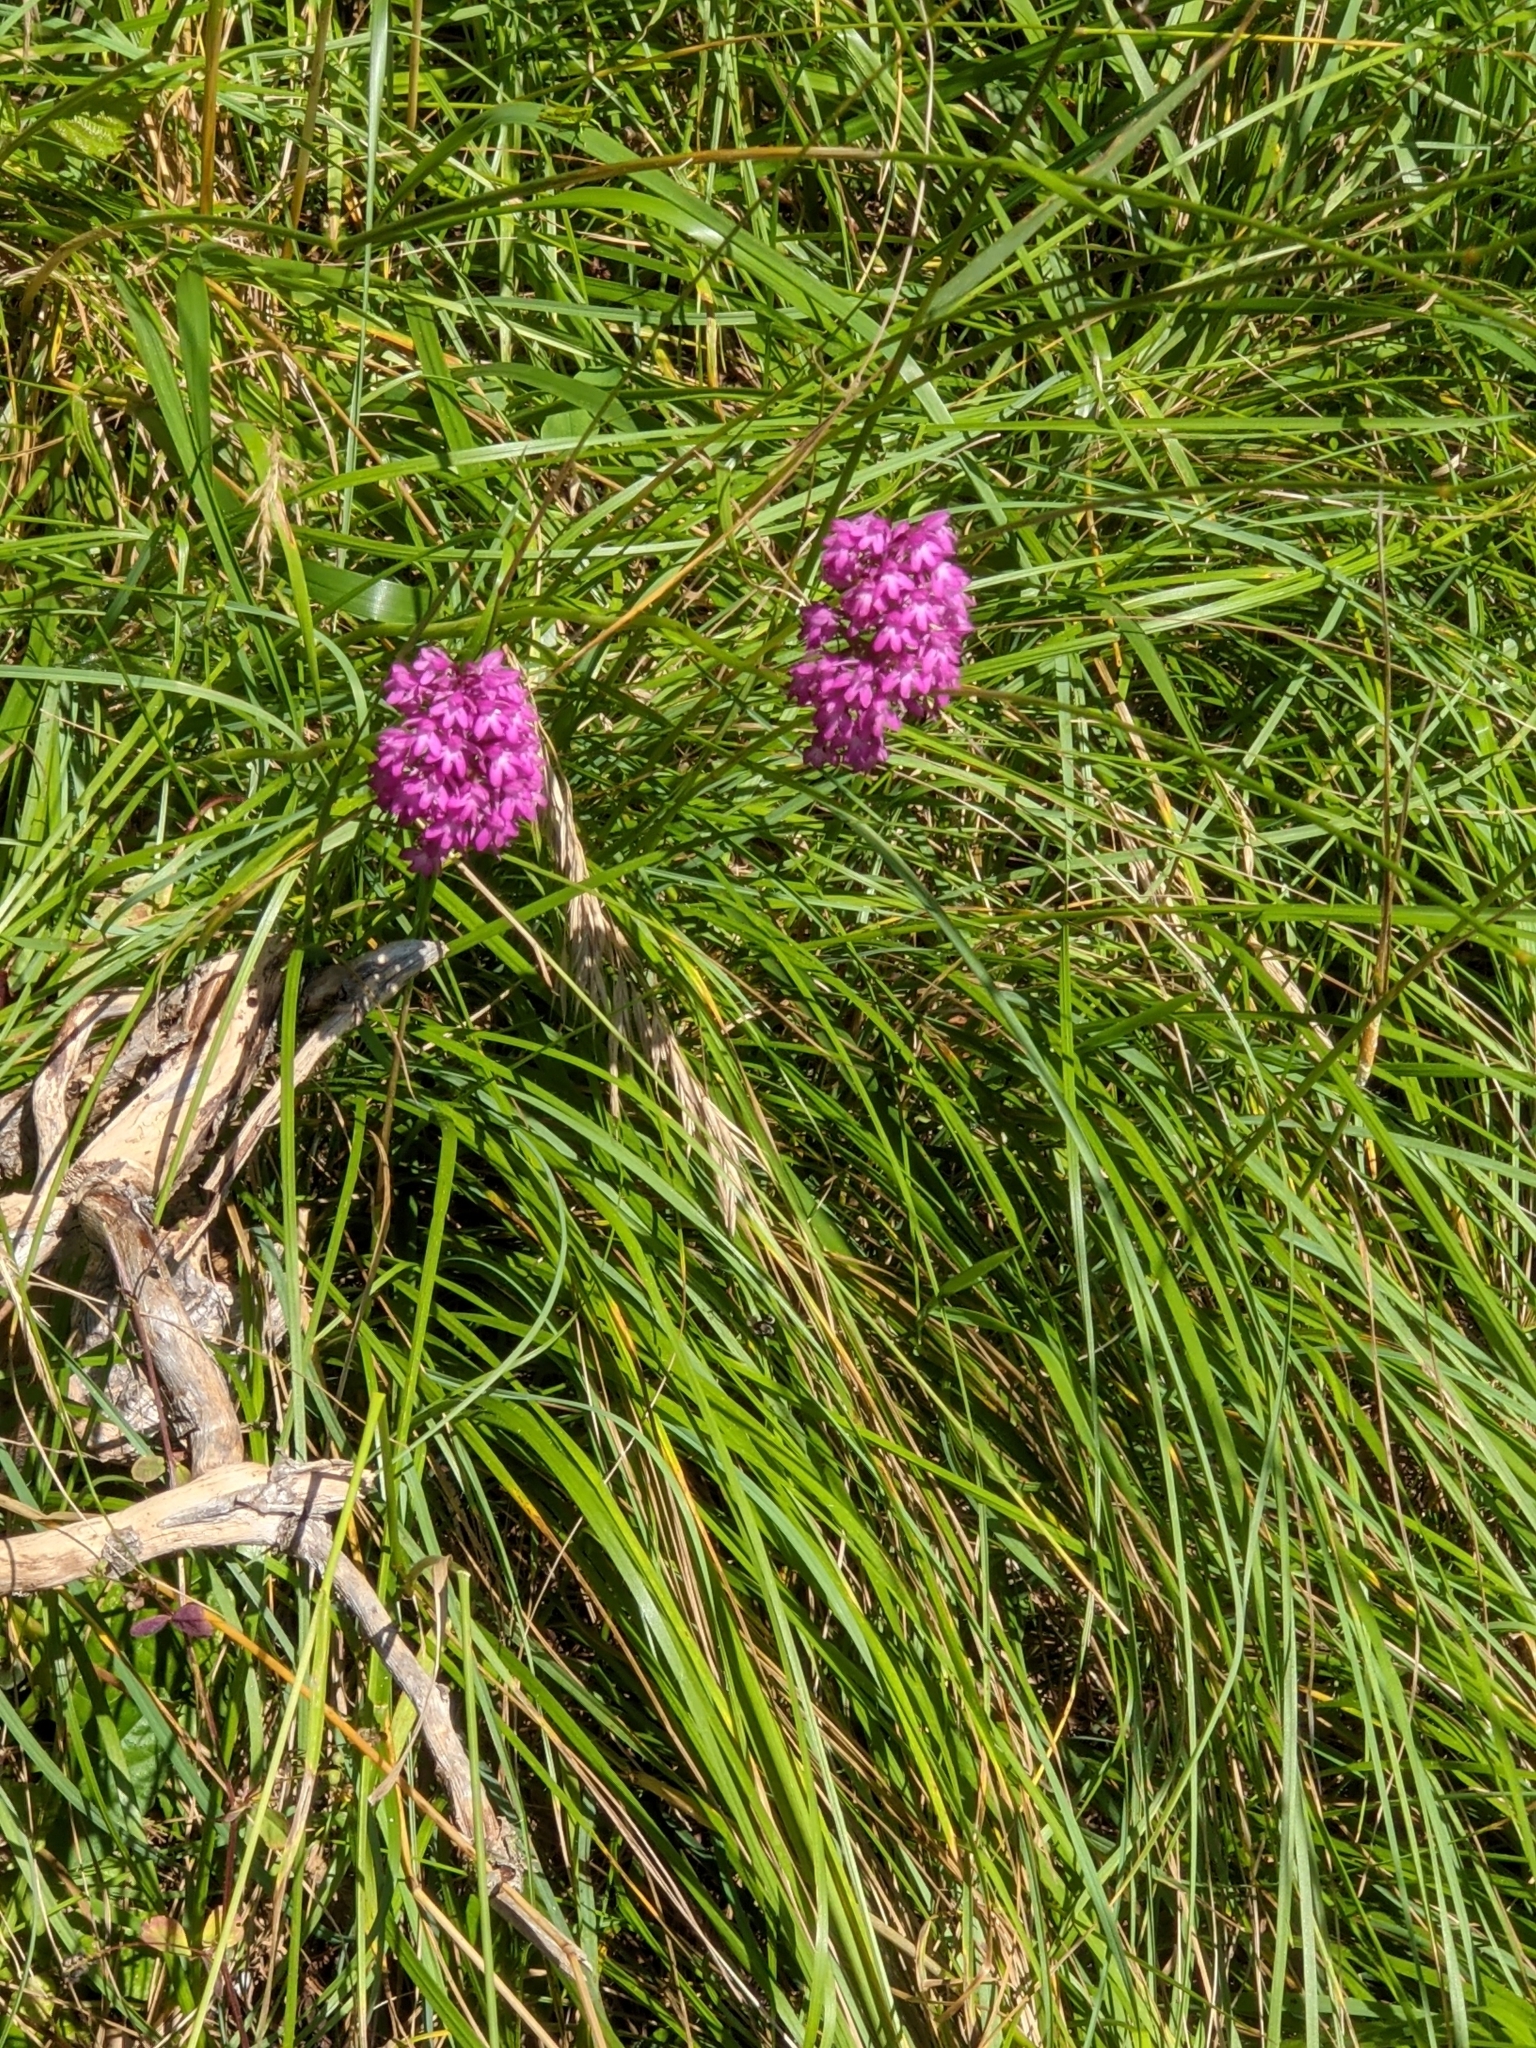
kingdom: Plantae
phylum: Tracheophyta
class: Liliopsida
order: Asparagales
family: Orchidaceae
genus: Anacamptis
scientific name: Anacamptis pyramidalis
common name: Pyramidal orchid
